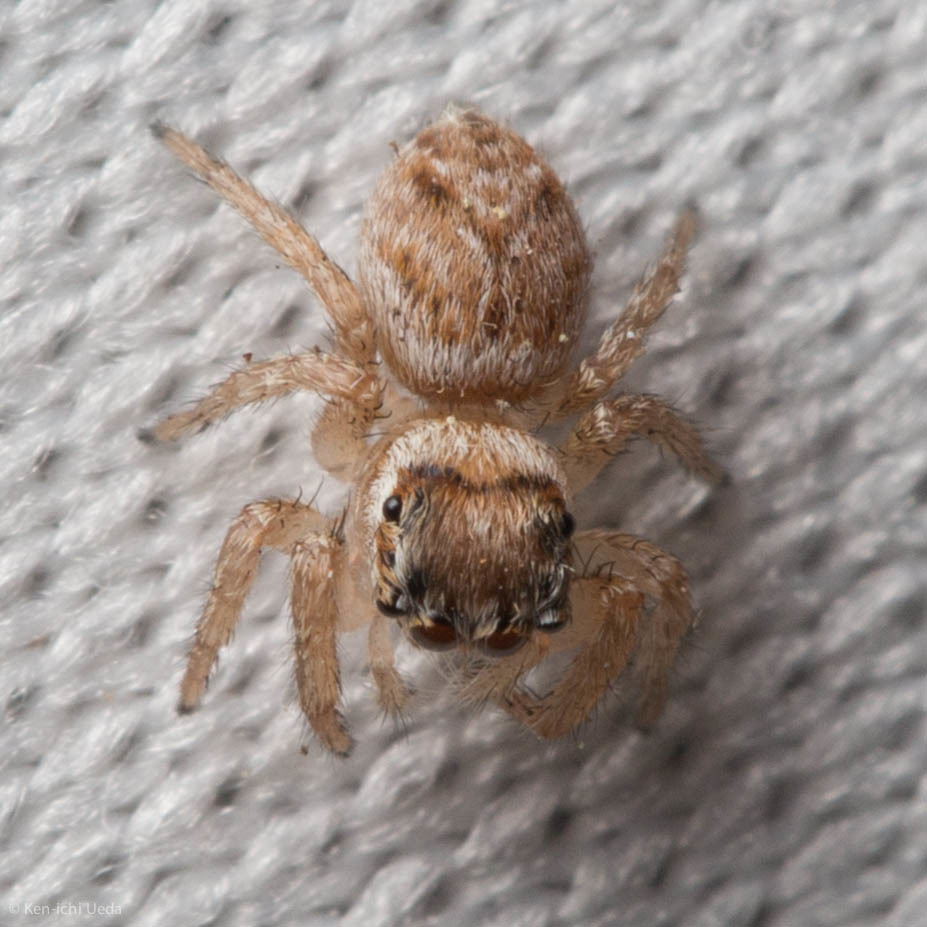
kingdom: Animalia
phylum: Arthropoda
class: Arachnida
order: Araneae
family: Salticidae
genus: Evarcha
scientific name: Evarcha proszynskii
